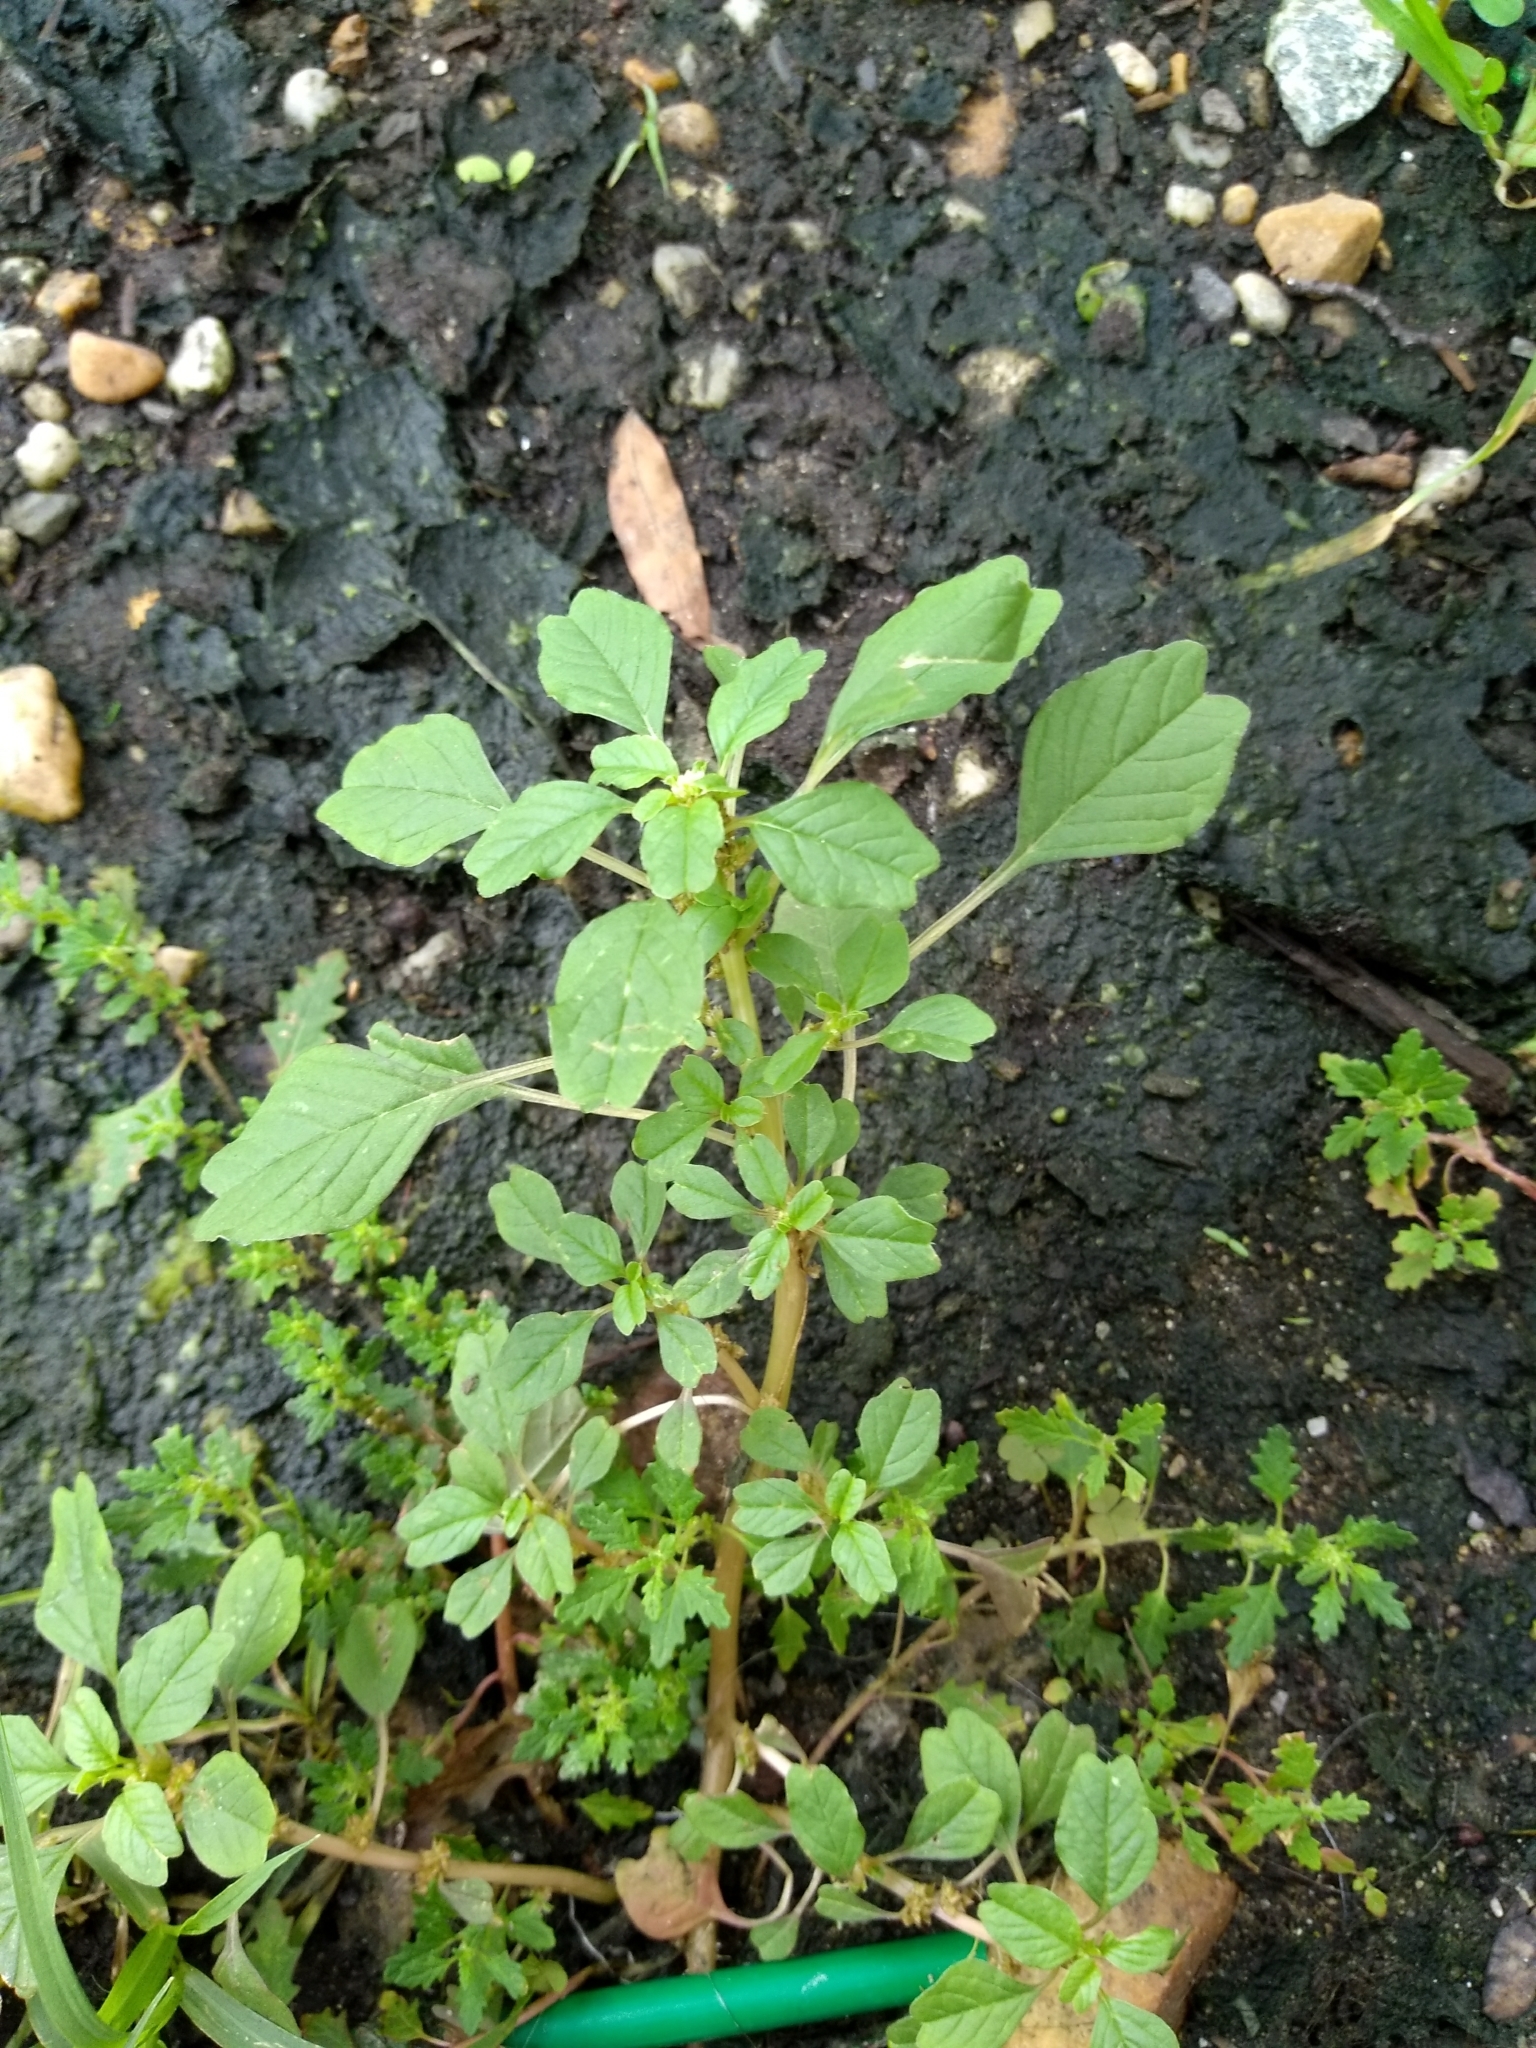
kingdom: Plantae
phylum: Tracheophyta
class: Magnoliopsida
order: Caryophyllales
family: Amaranthaceae
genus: Amaranthus
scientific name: Amaranthus blitum
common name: Purple amaranth
